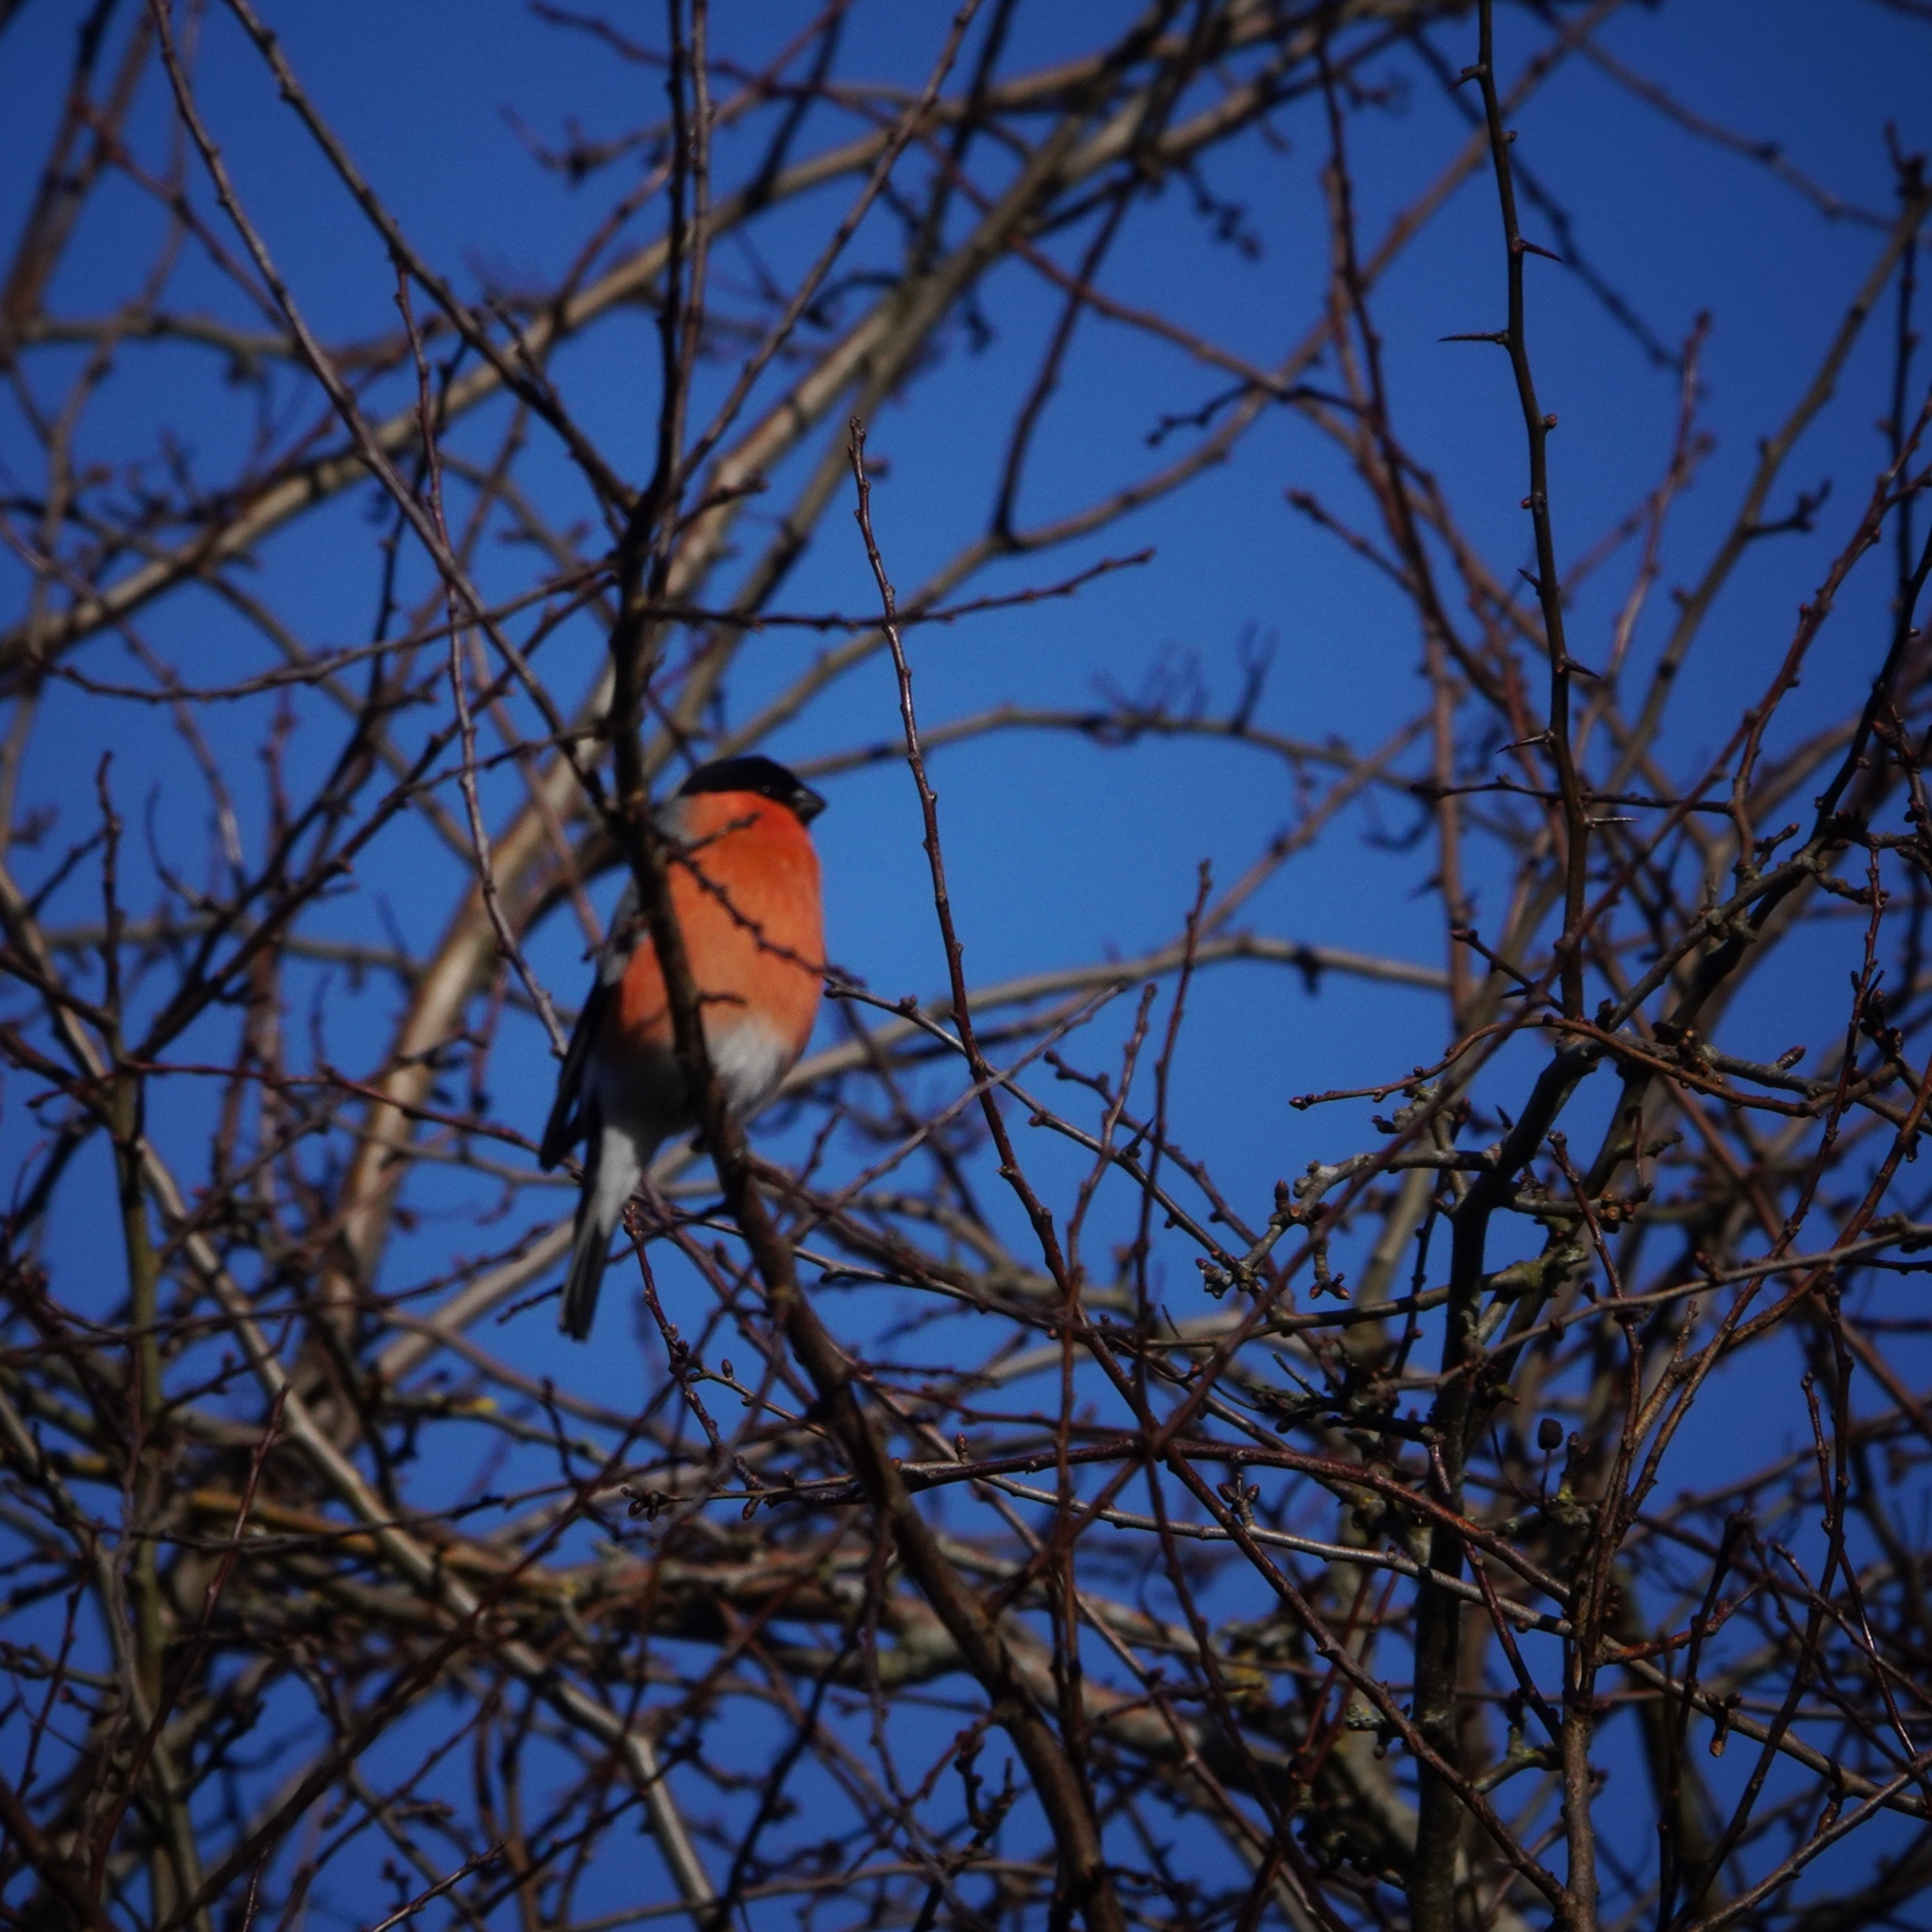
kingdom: Animalia
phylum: Chordata
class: Aves
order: Passeriformes
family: Fringillidae
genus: Pyrrhula
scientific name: Pyrrhula pyrrhula
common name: Eurasian bullfinch
